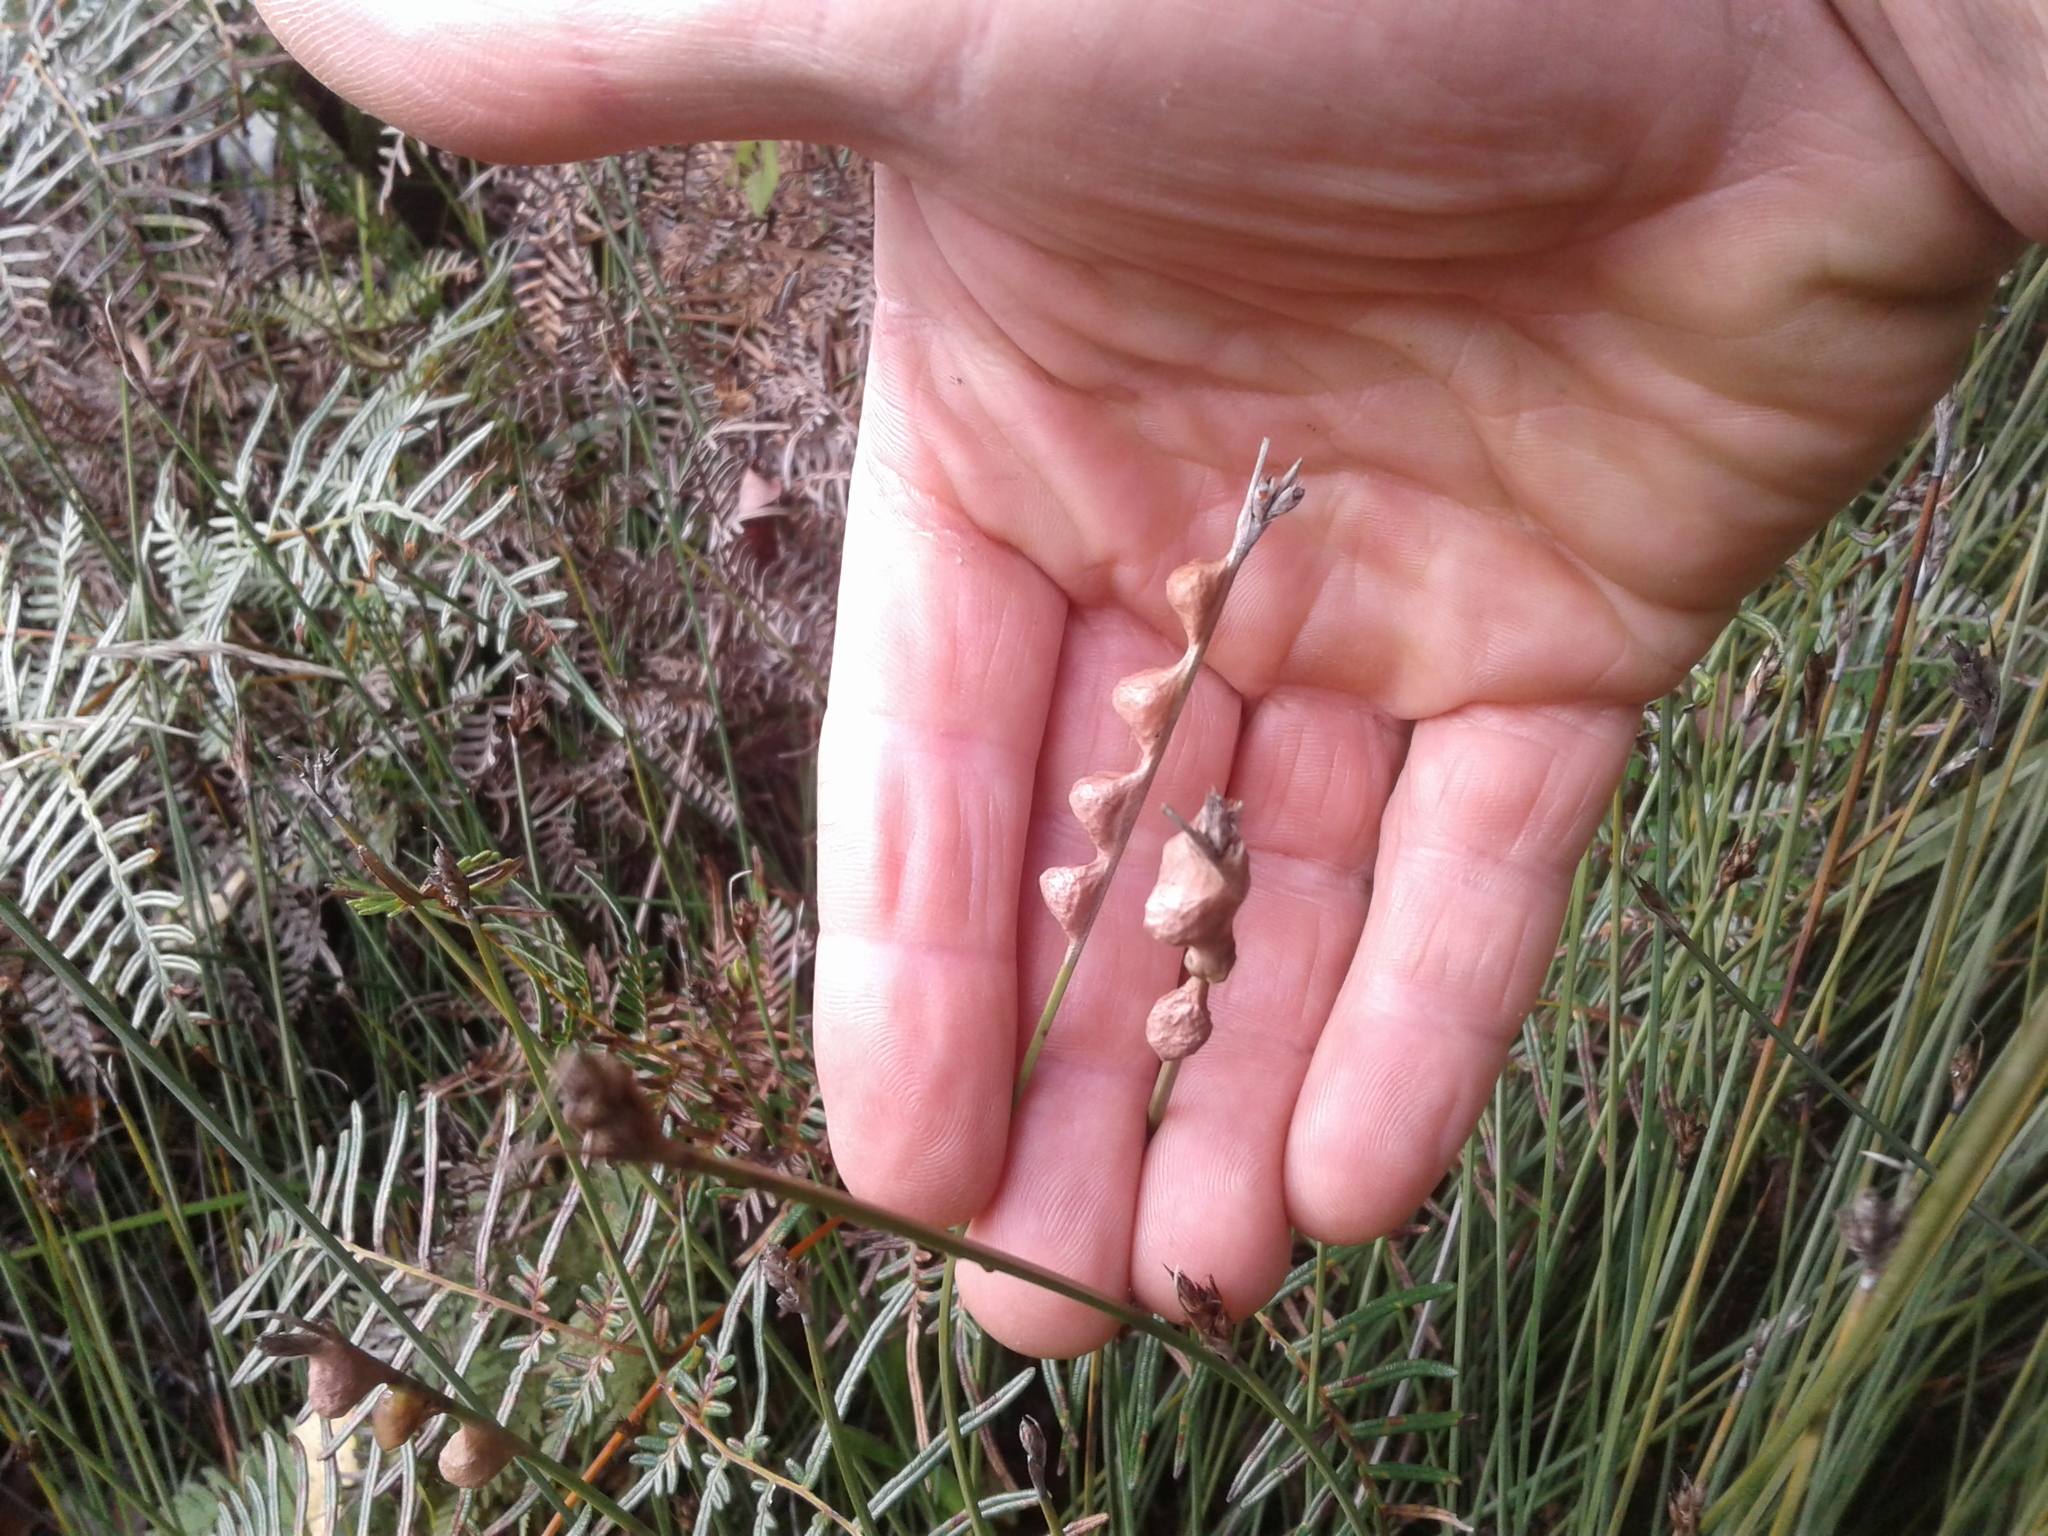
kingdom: Animalia
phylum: Arthropoda
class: Arachnida
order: Araneae
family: Araneidae
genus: Cyclosa
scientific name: Cyclosa trilobata
